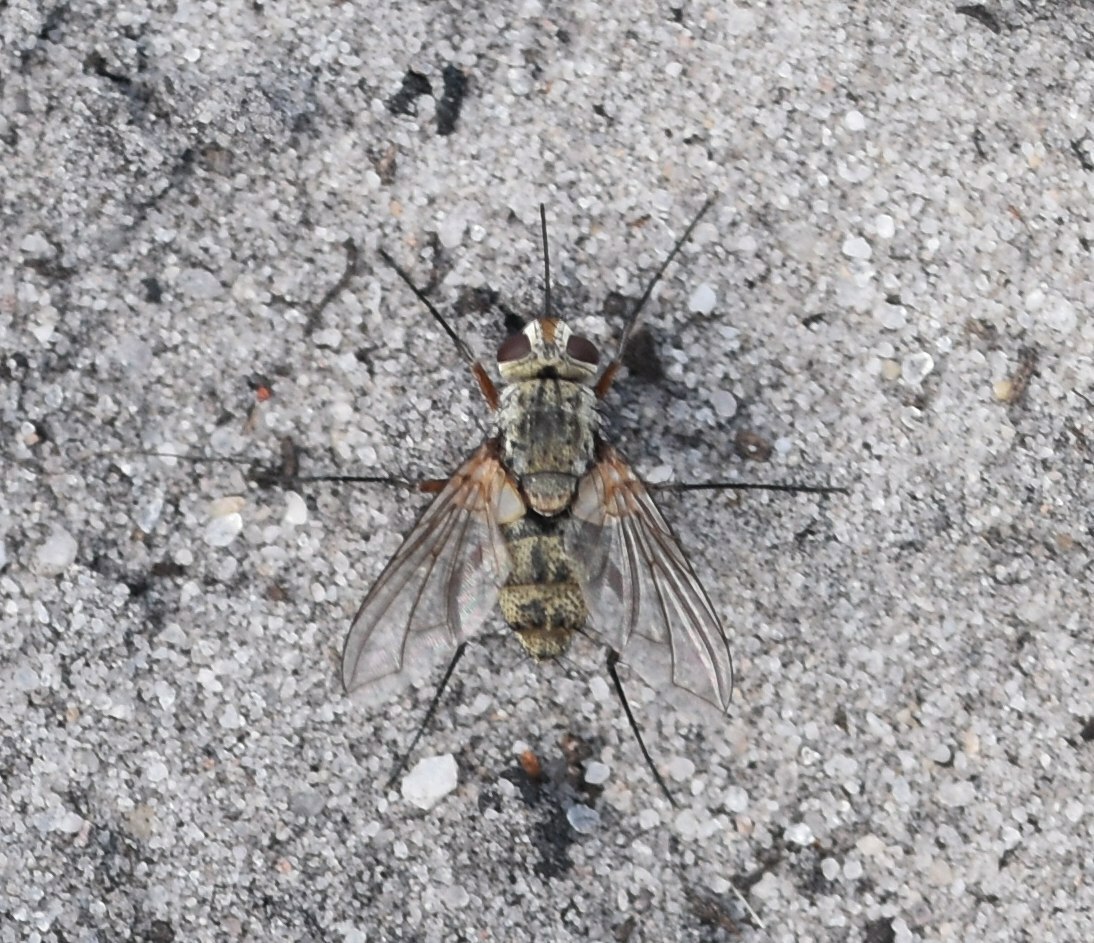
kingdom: Animalia
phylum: Arthropoda
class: Insecta
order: Diptera
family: Tachinidae
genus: Prosena
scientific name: Prosena siberita
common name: Parasitic fly
